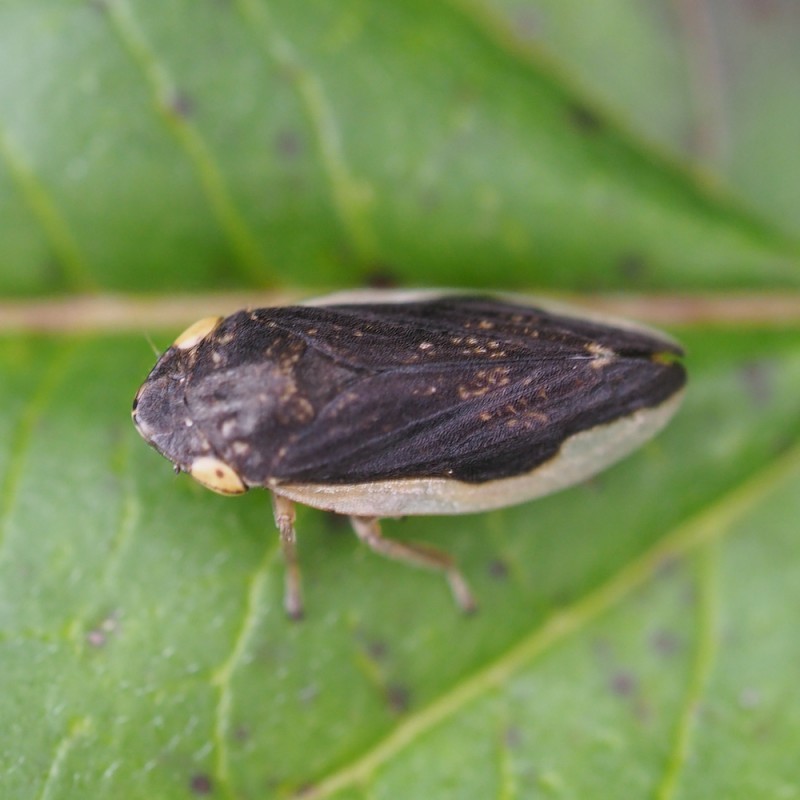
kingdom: Animalia
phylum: Arthropoda
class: Insecta
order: Hemiptera
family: Aphrophoridae
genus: Philaenus
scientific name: Philaenus spumarius
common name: Meadow spittlebug
